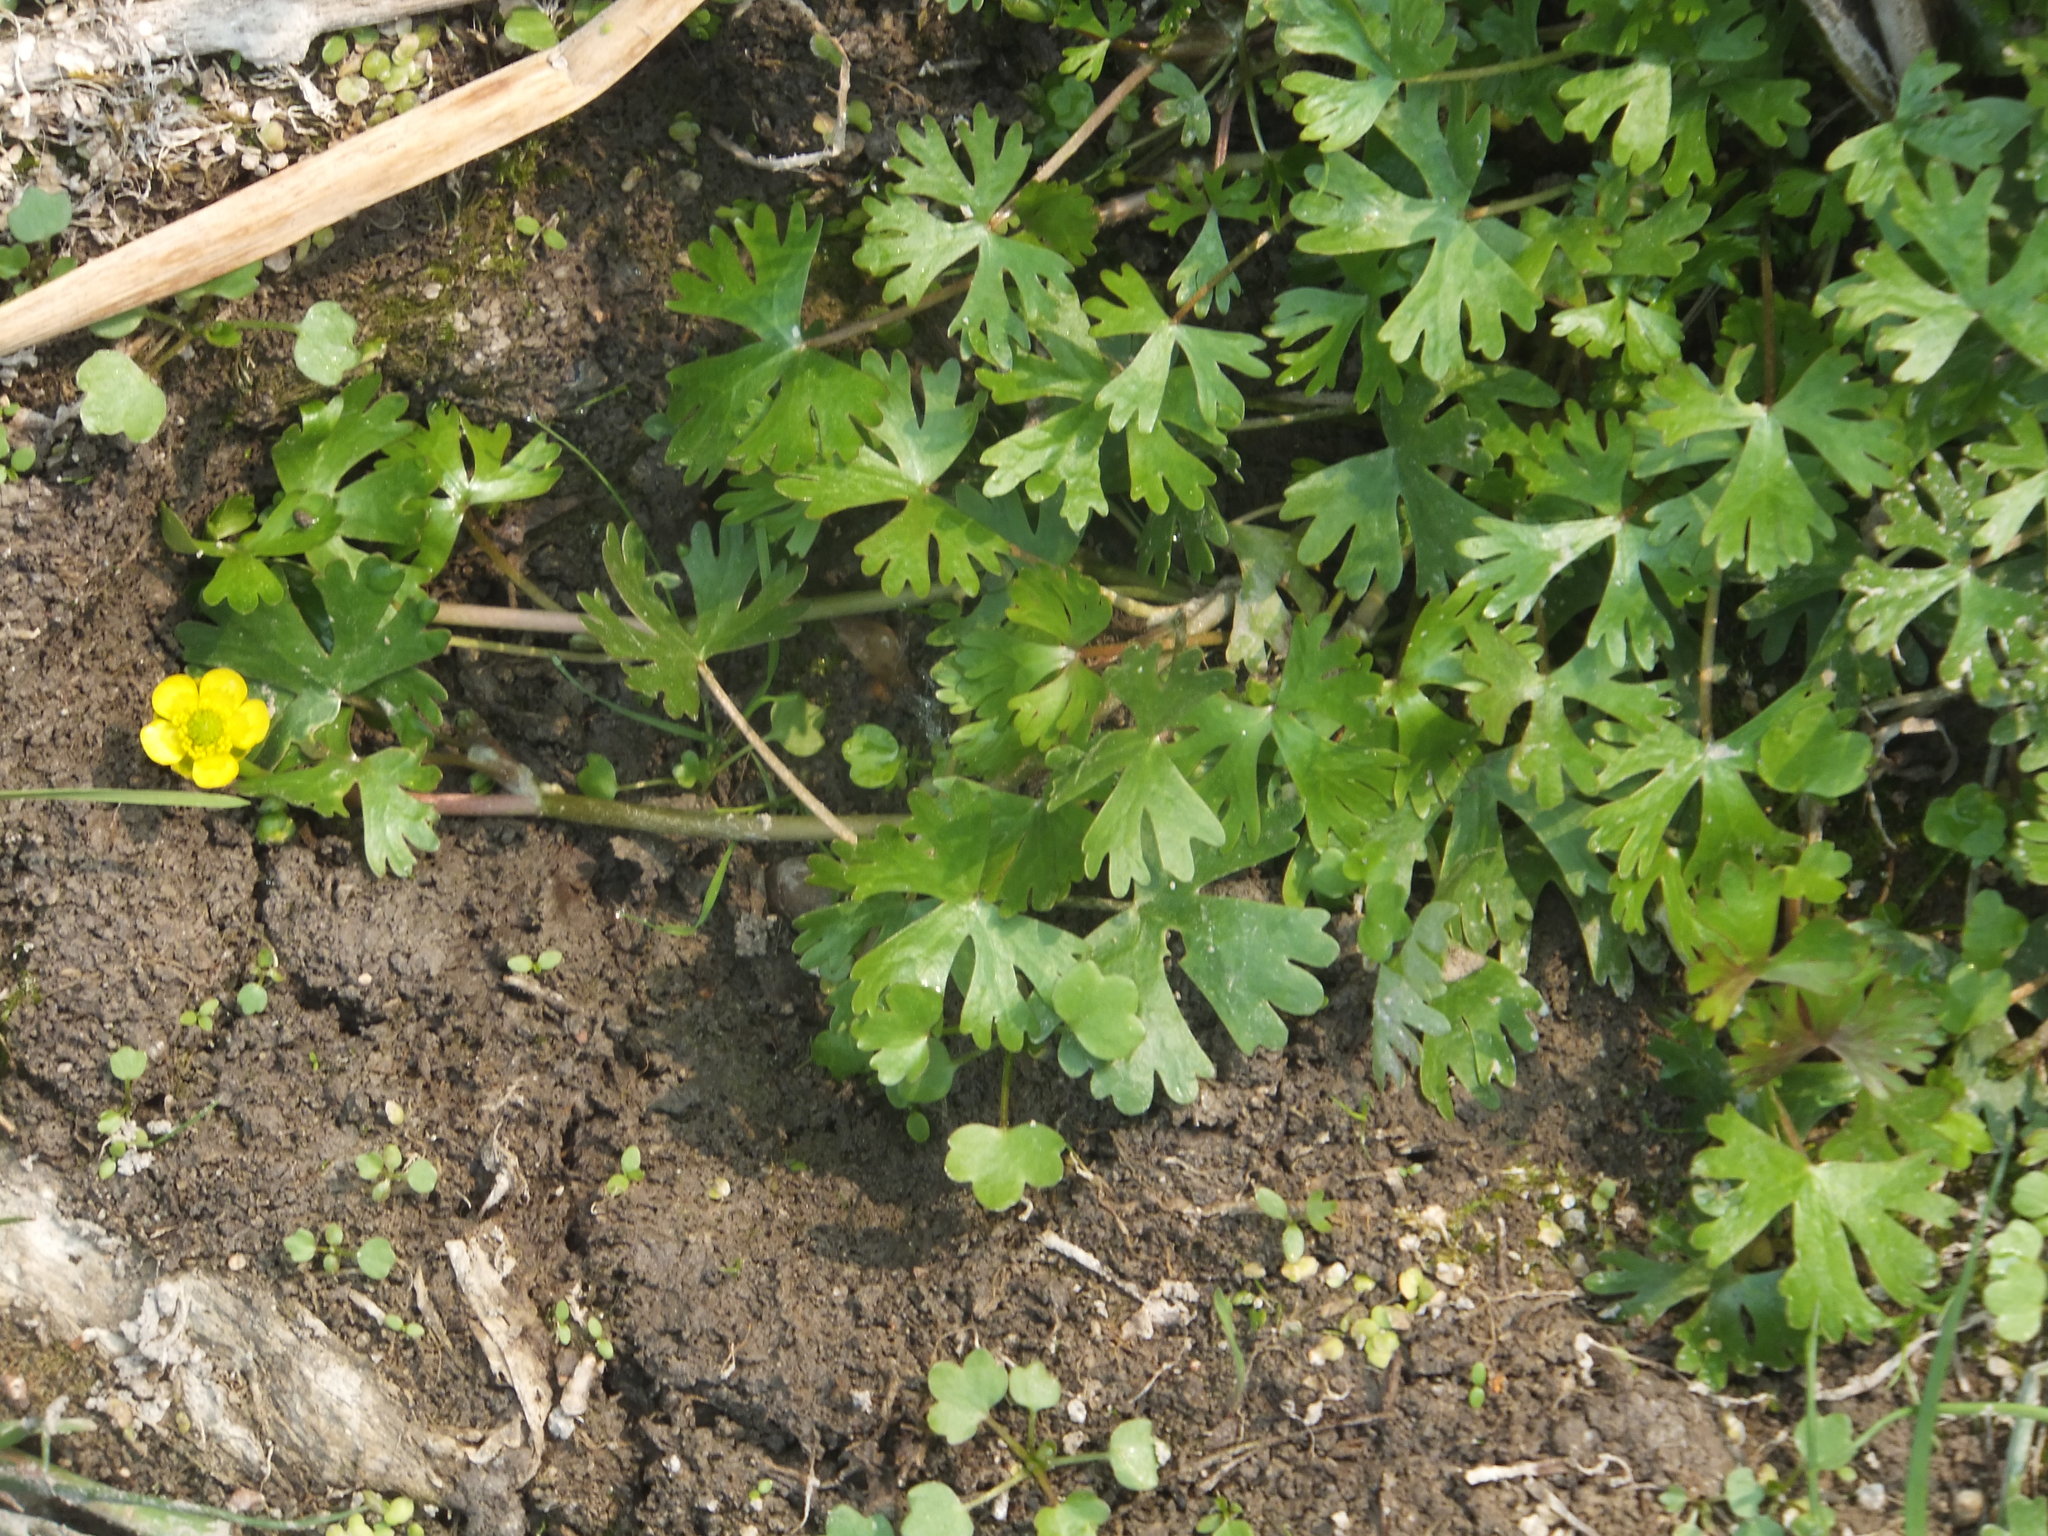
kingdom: Plantae
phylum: Tracheophyta
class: Magnoliopsida
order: Ranunculales
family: Ranunculaceae
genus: Ranunculus
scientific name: Ranunculus sceleratus
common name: Celery-leaved buttercup
